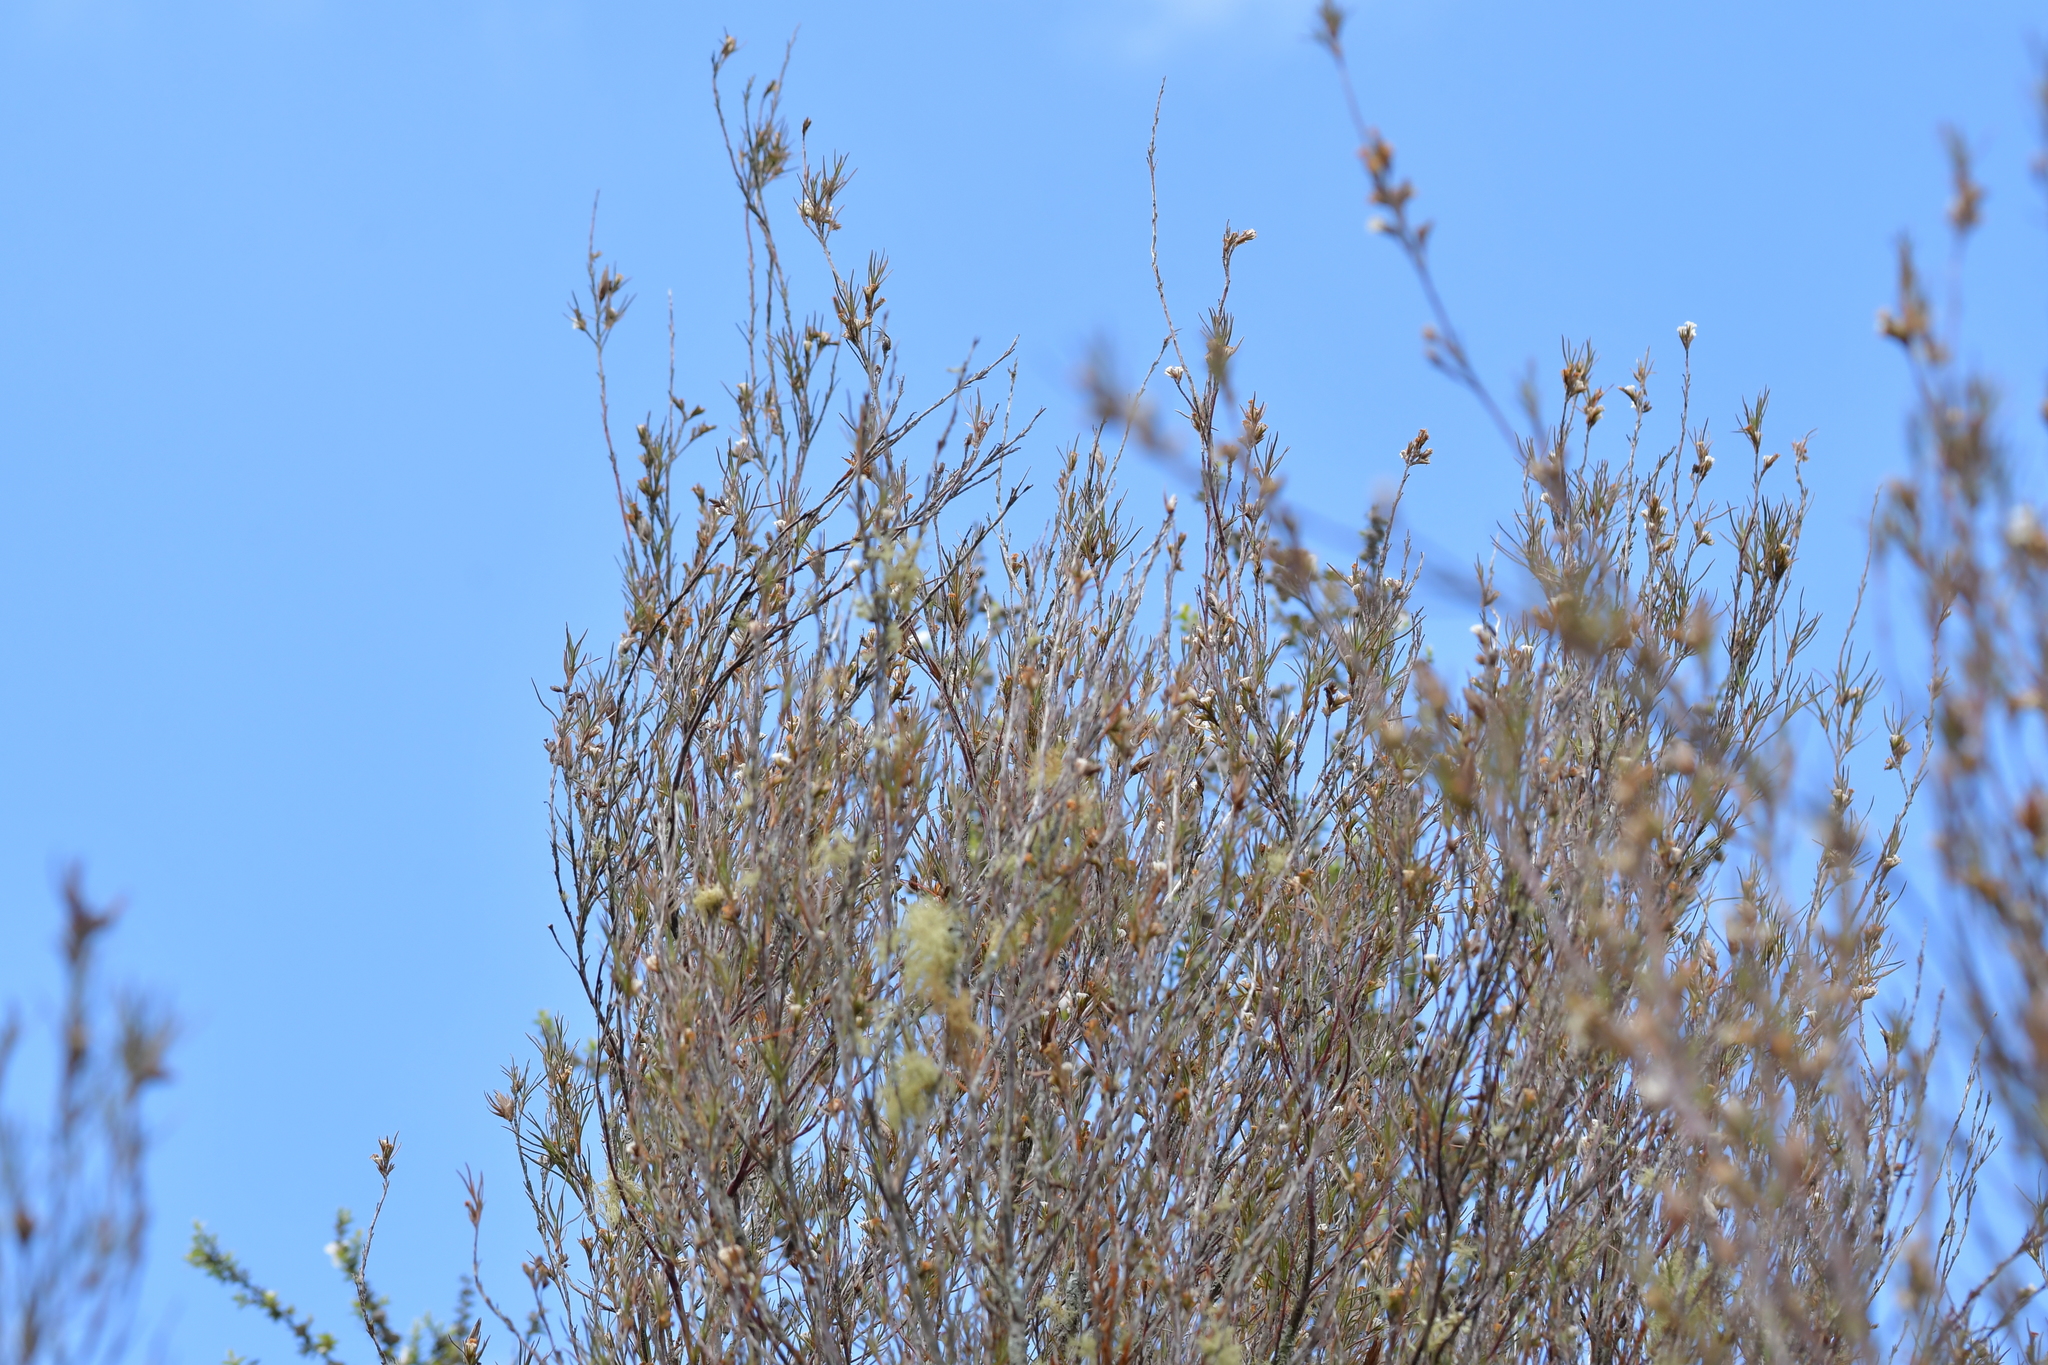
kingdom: Plantae
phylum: Tracheophyta
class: Magnoliopsida
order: Ericales
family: Ericaceae
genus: Dracophyllum
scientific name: Dracophyllum subulatum
